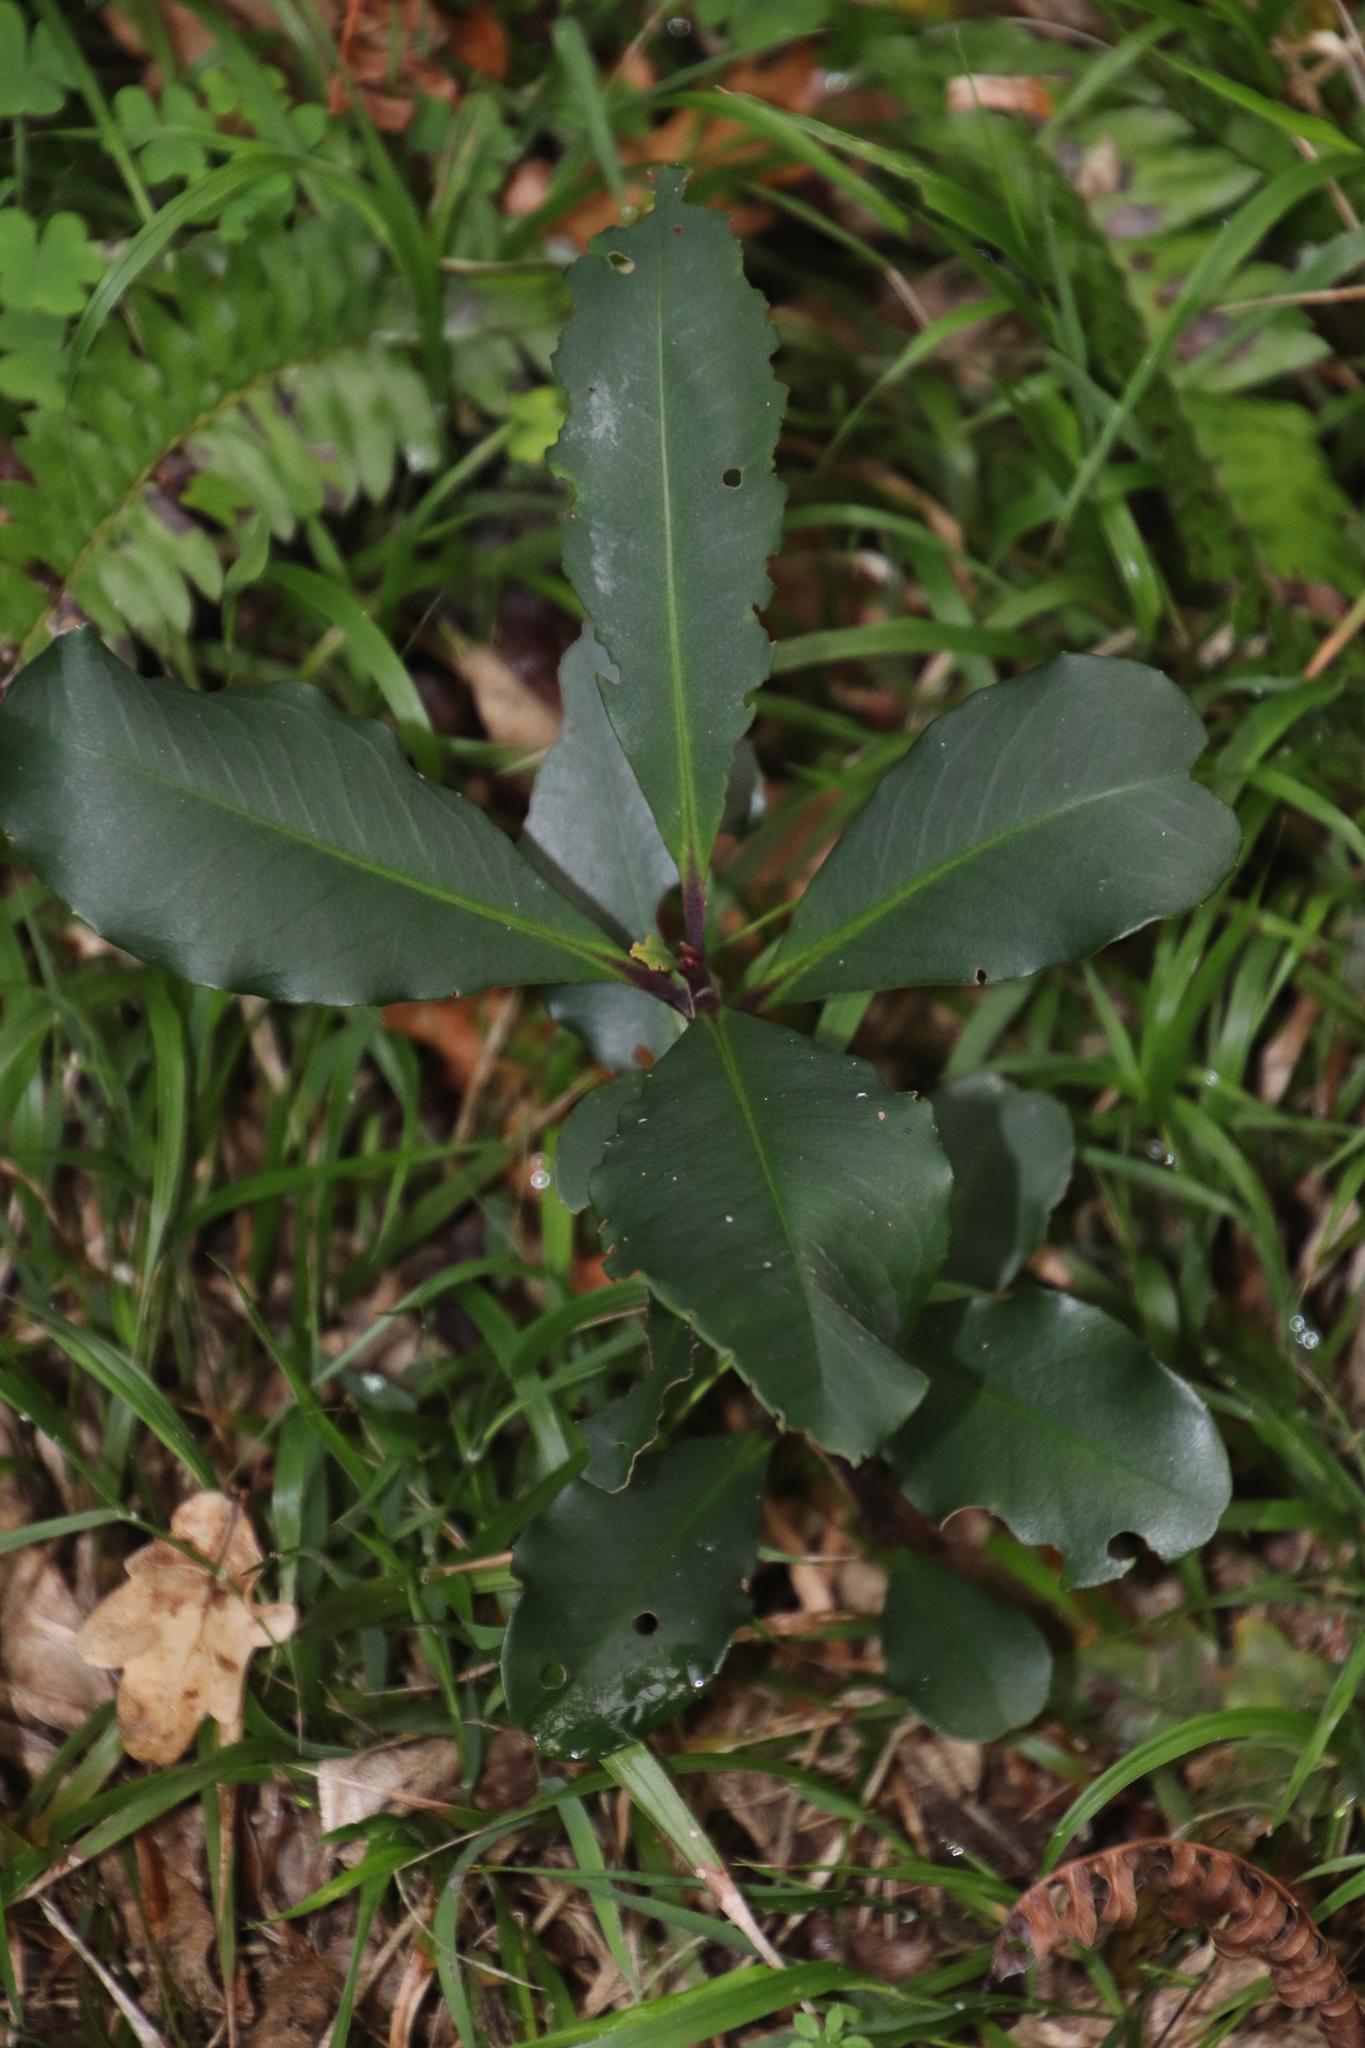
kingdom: Plantae
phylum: Tracheophyta
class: Magnoliopsida
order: Ericales
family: Primulaceae
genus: Myrsine
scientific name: Myrsine melanophloeos
